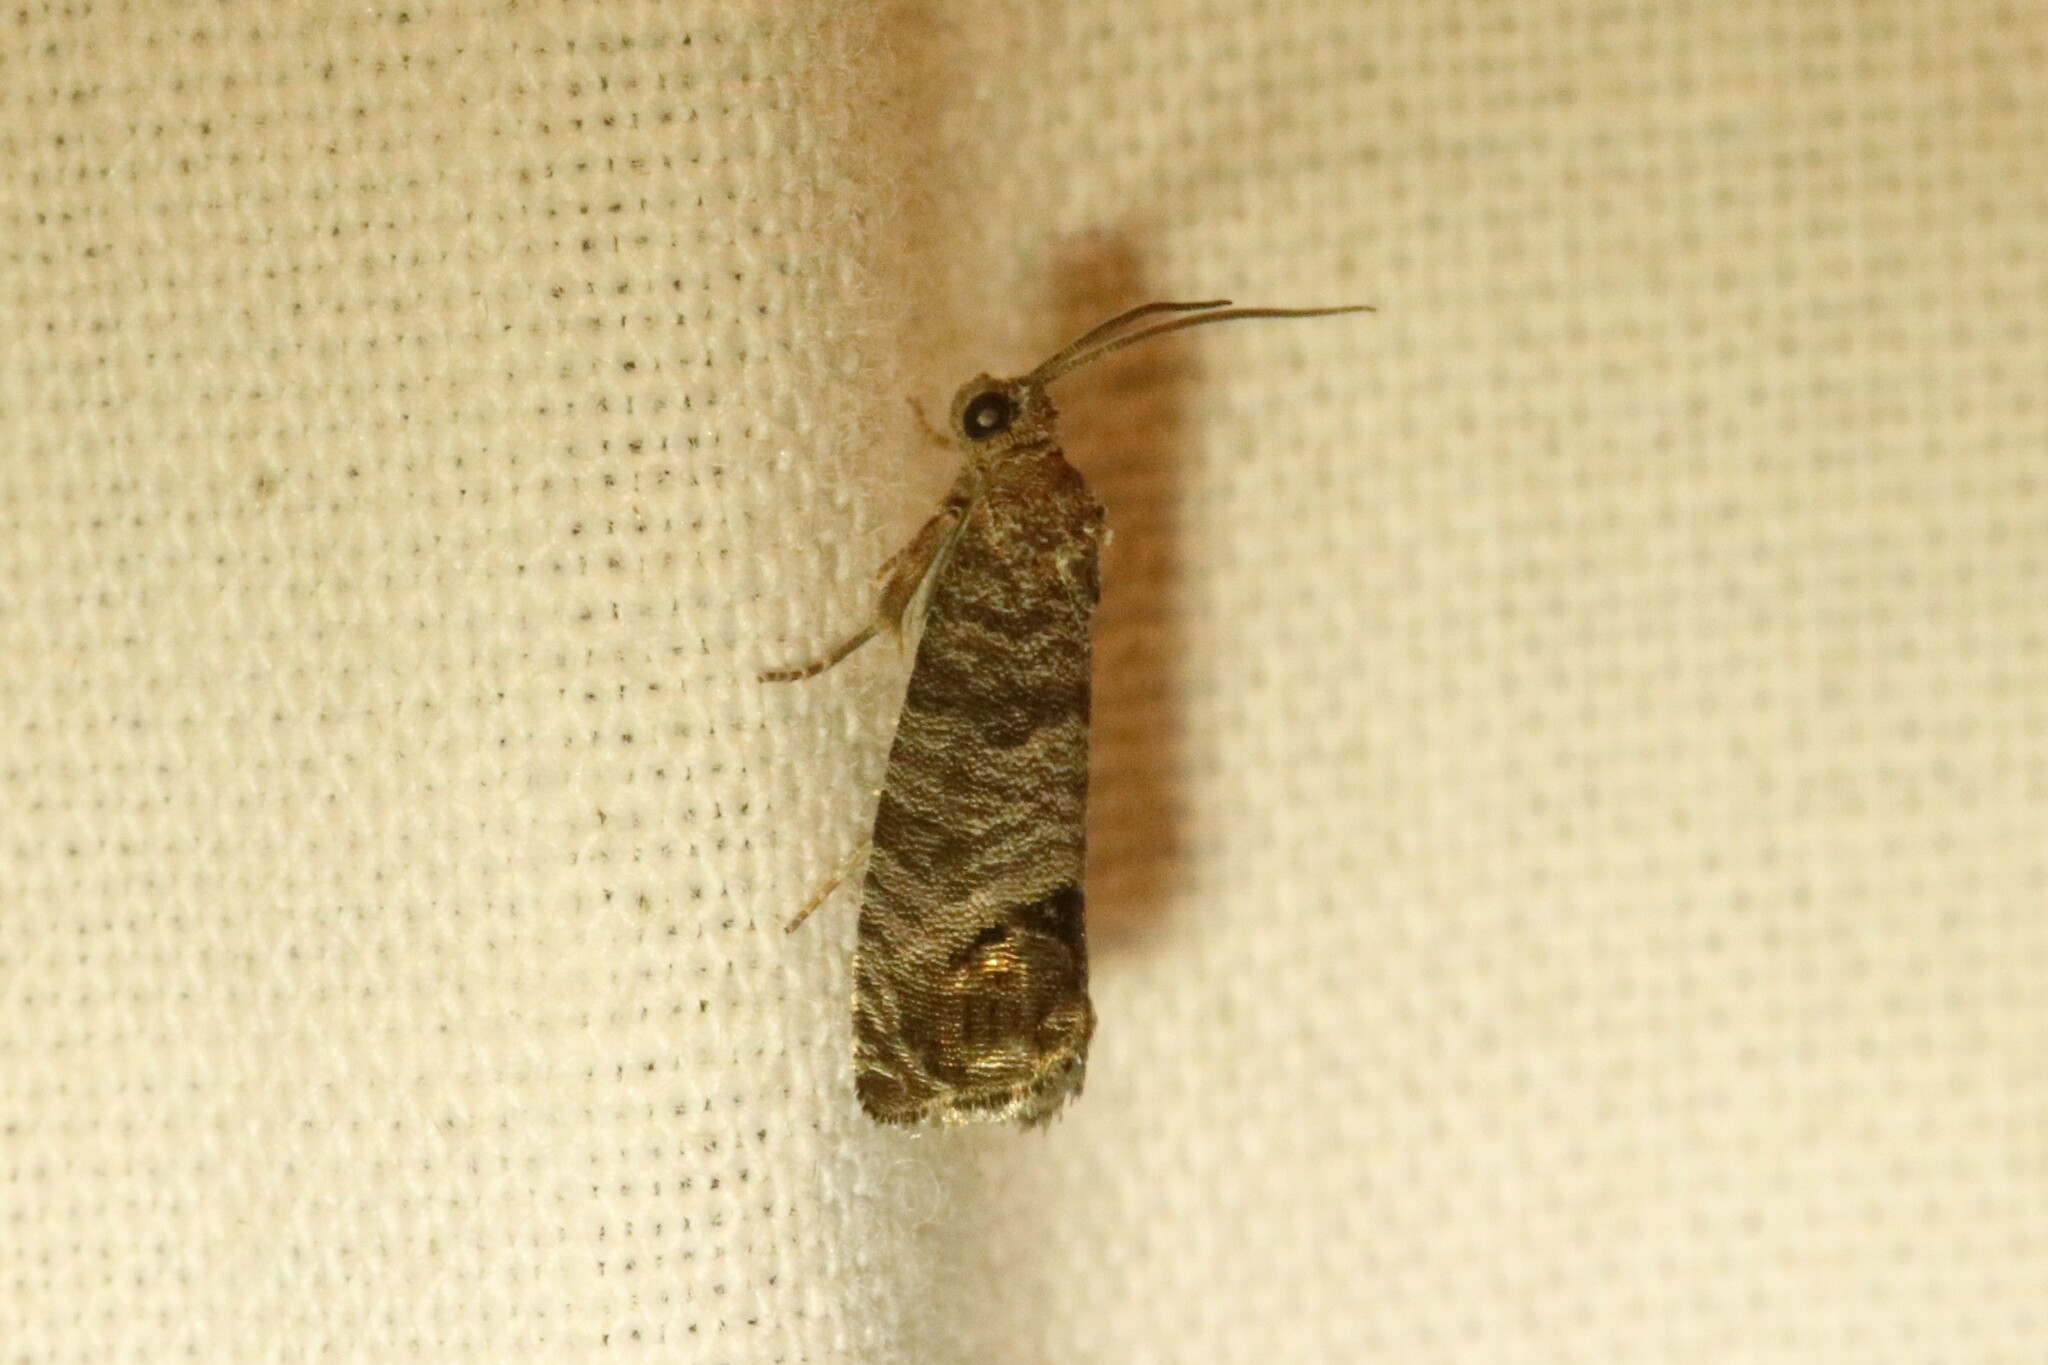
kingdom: Animalia
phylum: Arthropoda
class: Insecta
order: Lepidoptera
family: Tortricidae
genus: Cydia
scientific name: Cydia pomonella
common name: Codling moth
